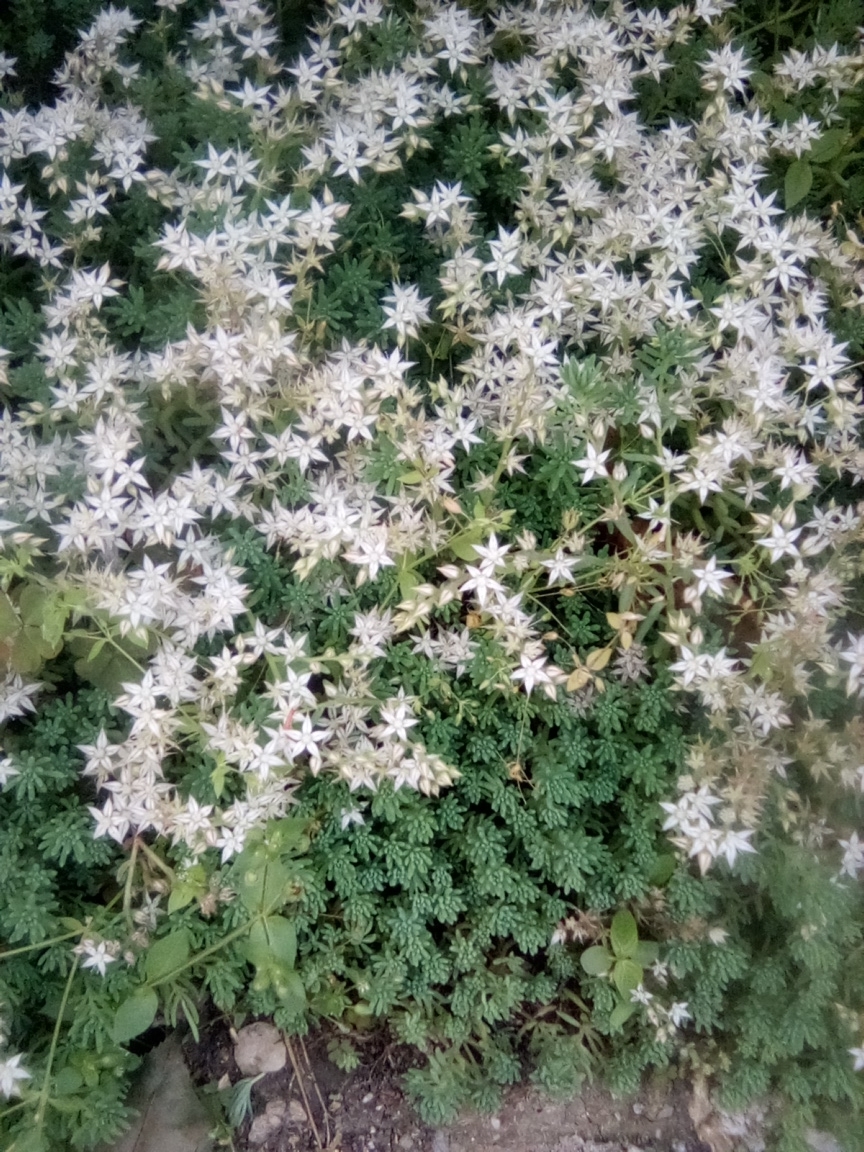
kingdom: Plantae
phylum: Tracheophyta
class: Magnoliopsida
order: Saxifragales
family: Crassulaceae
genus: Sedum
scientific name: Sedum pallidum
